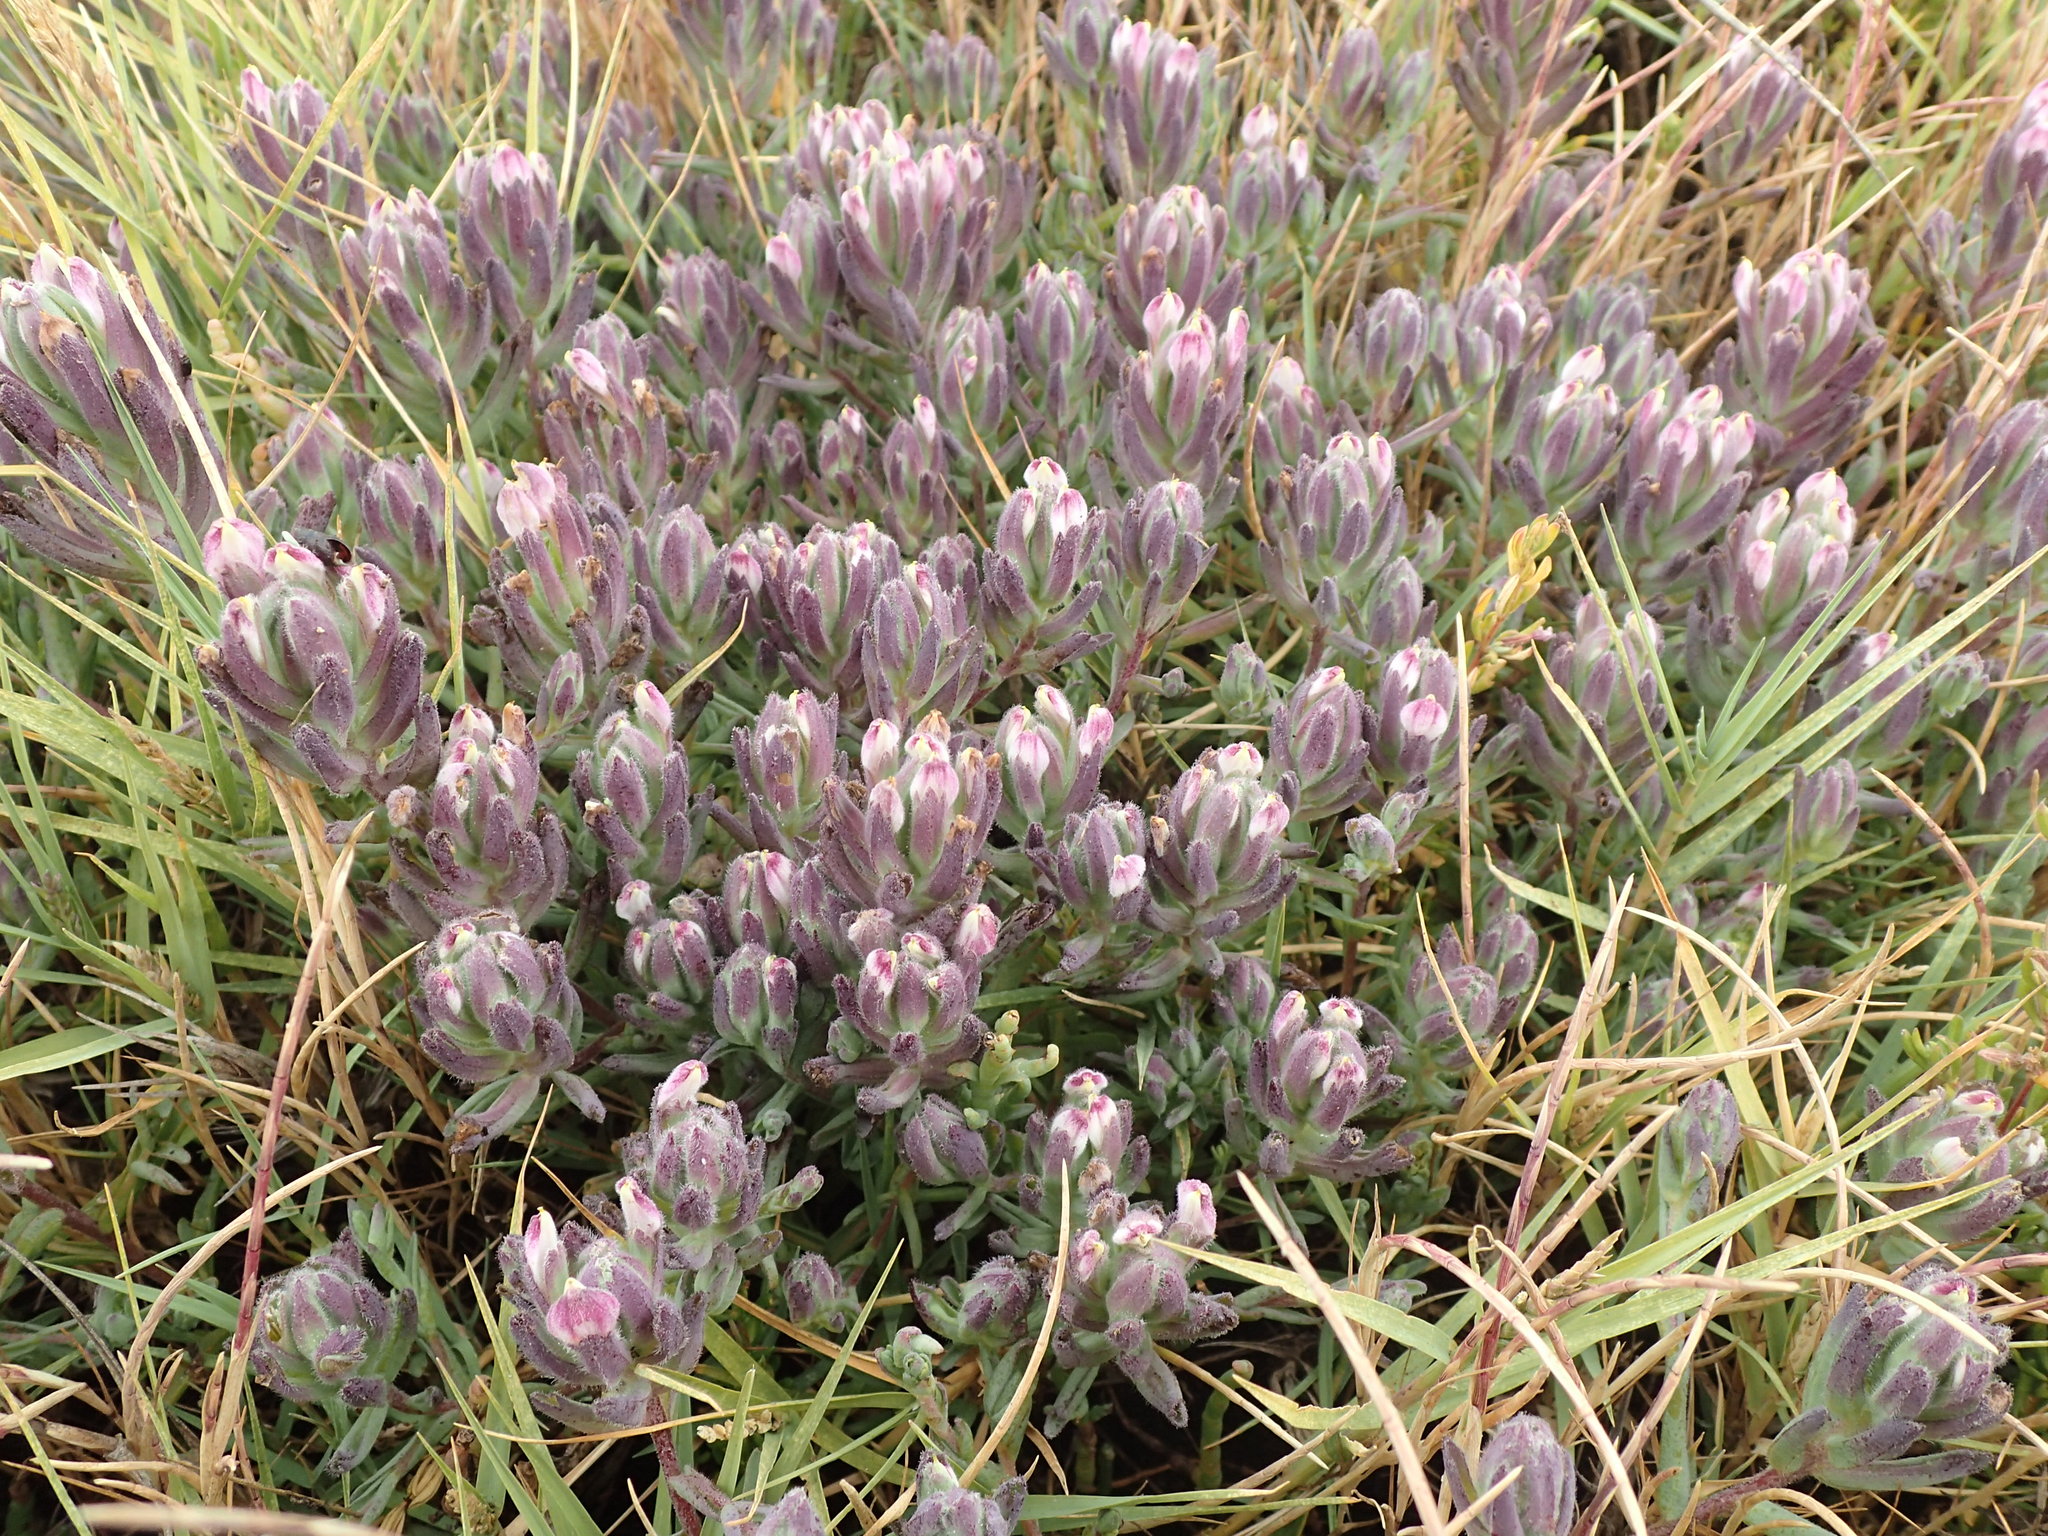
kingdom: Plantae
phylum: Tracheophyta
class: Magnoliopsida
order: Lamiales
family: Orobanchaceae
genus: Chloropyron
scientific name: Chloropyron maritimum
